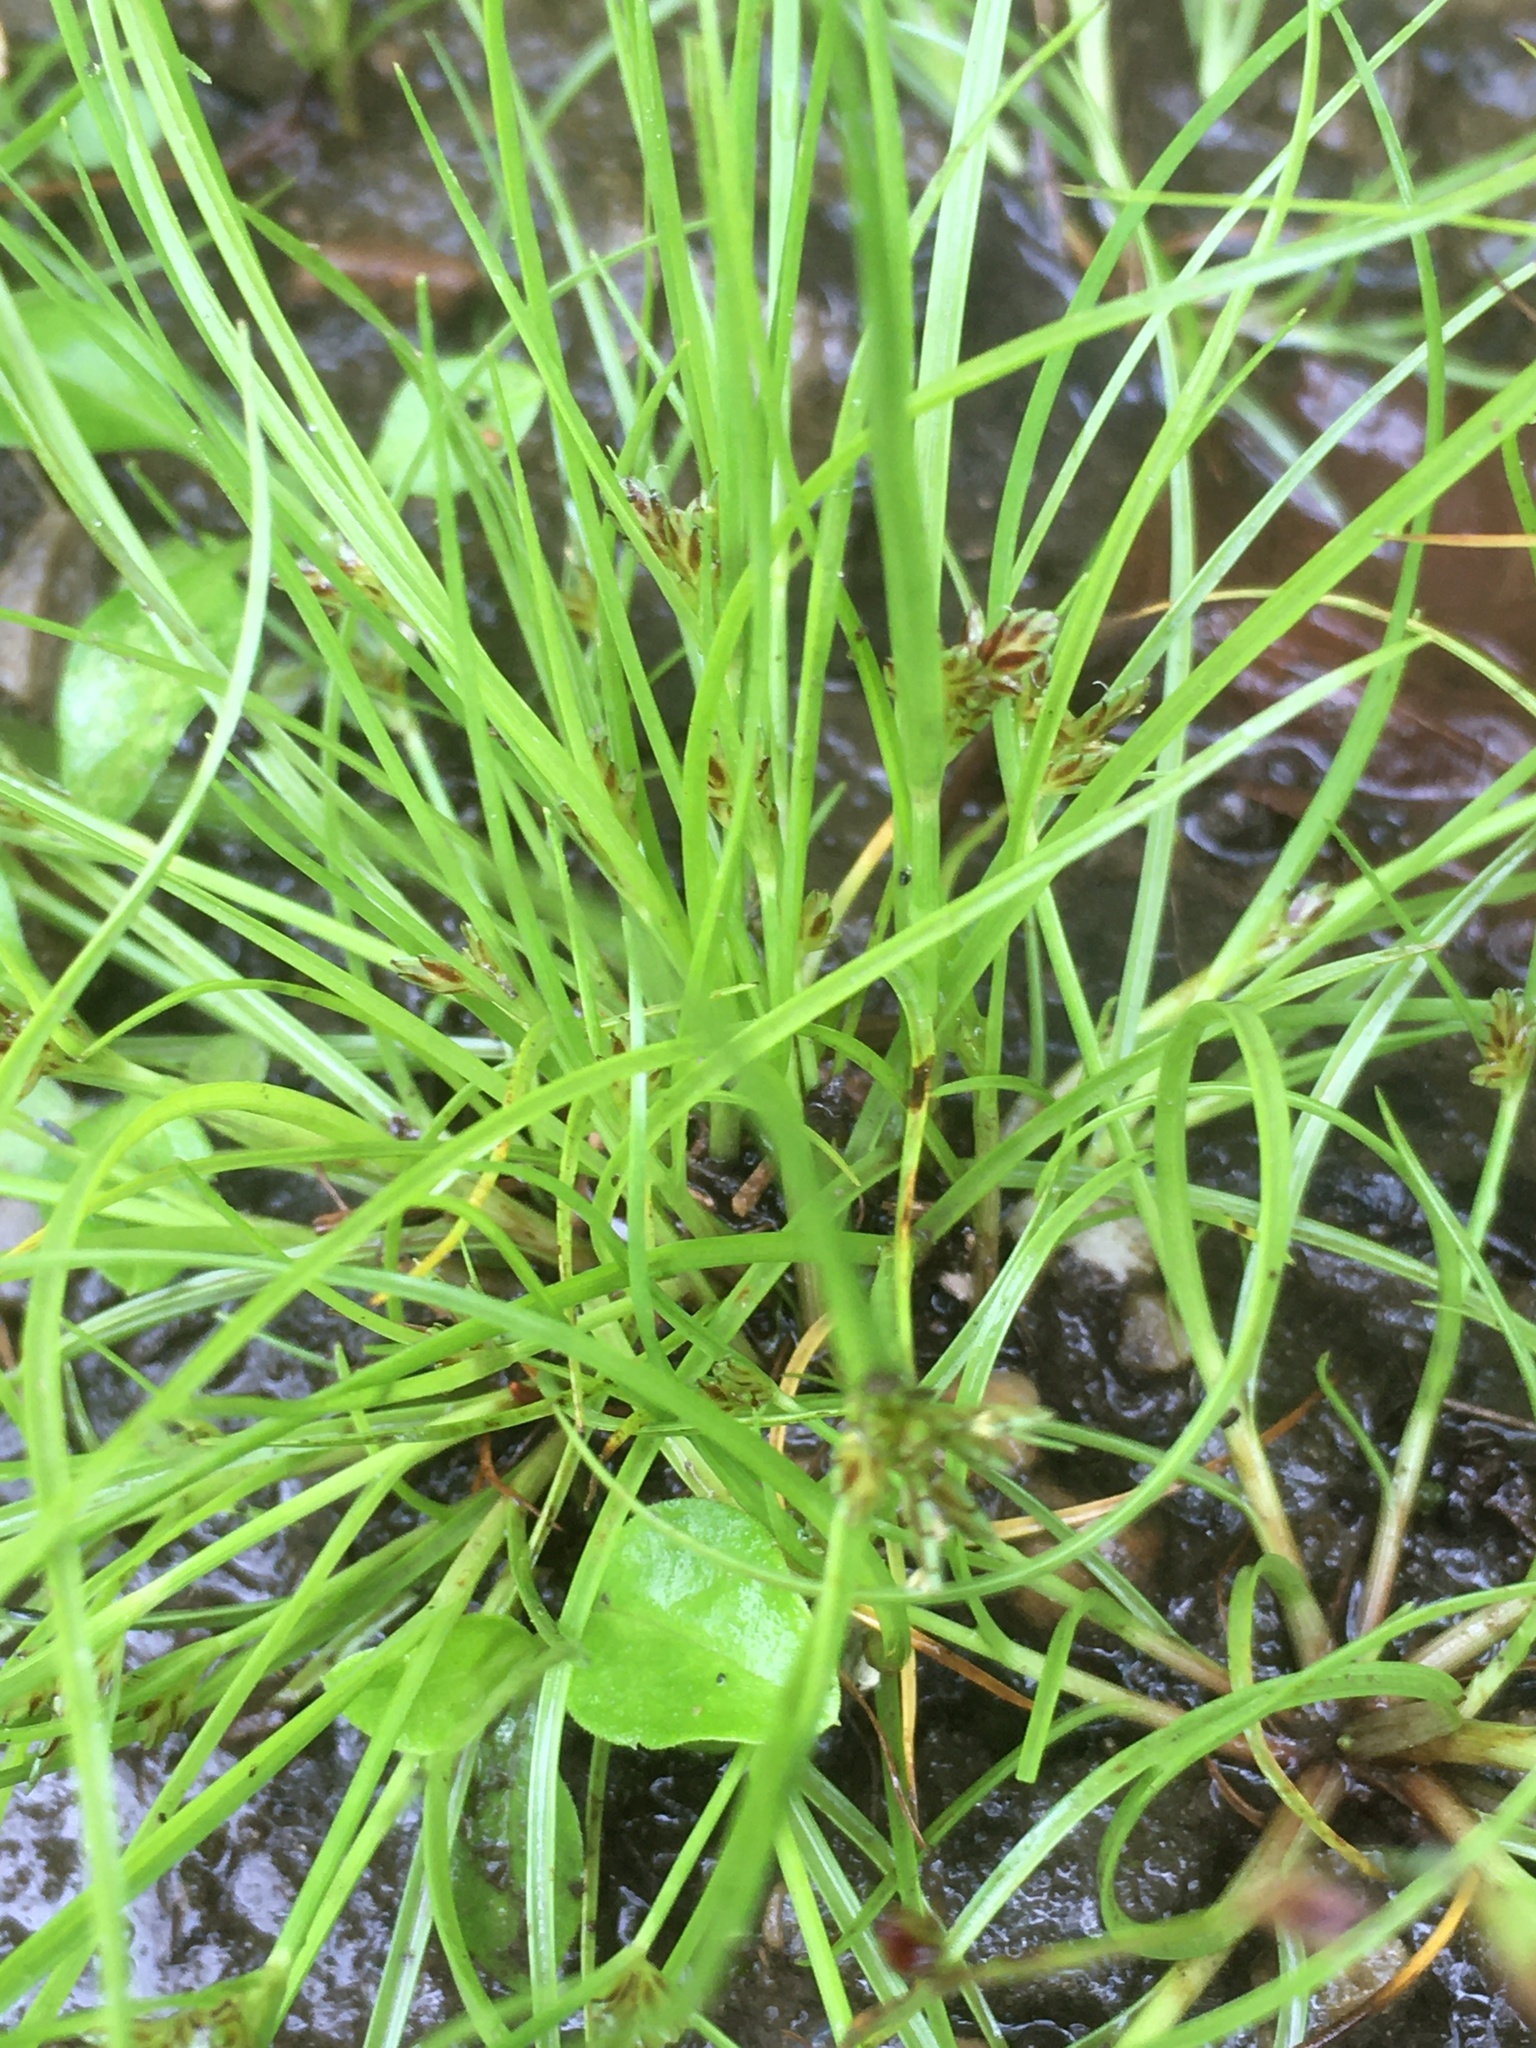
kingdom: Plantae
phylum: Tracheophyta
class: Liliopsida
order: Poales
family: Cyperaceae
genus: Cyperus
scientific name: Cyperus bipartitus
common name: Brook flatsedge
